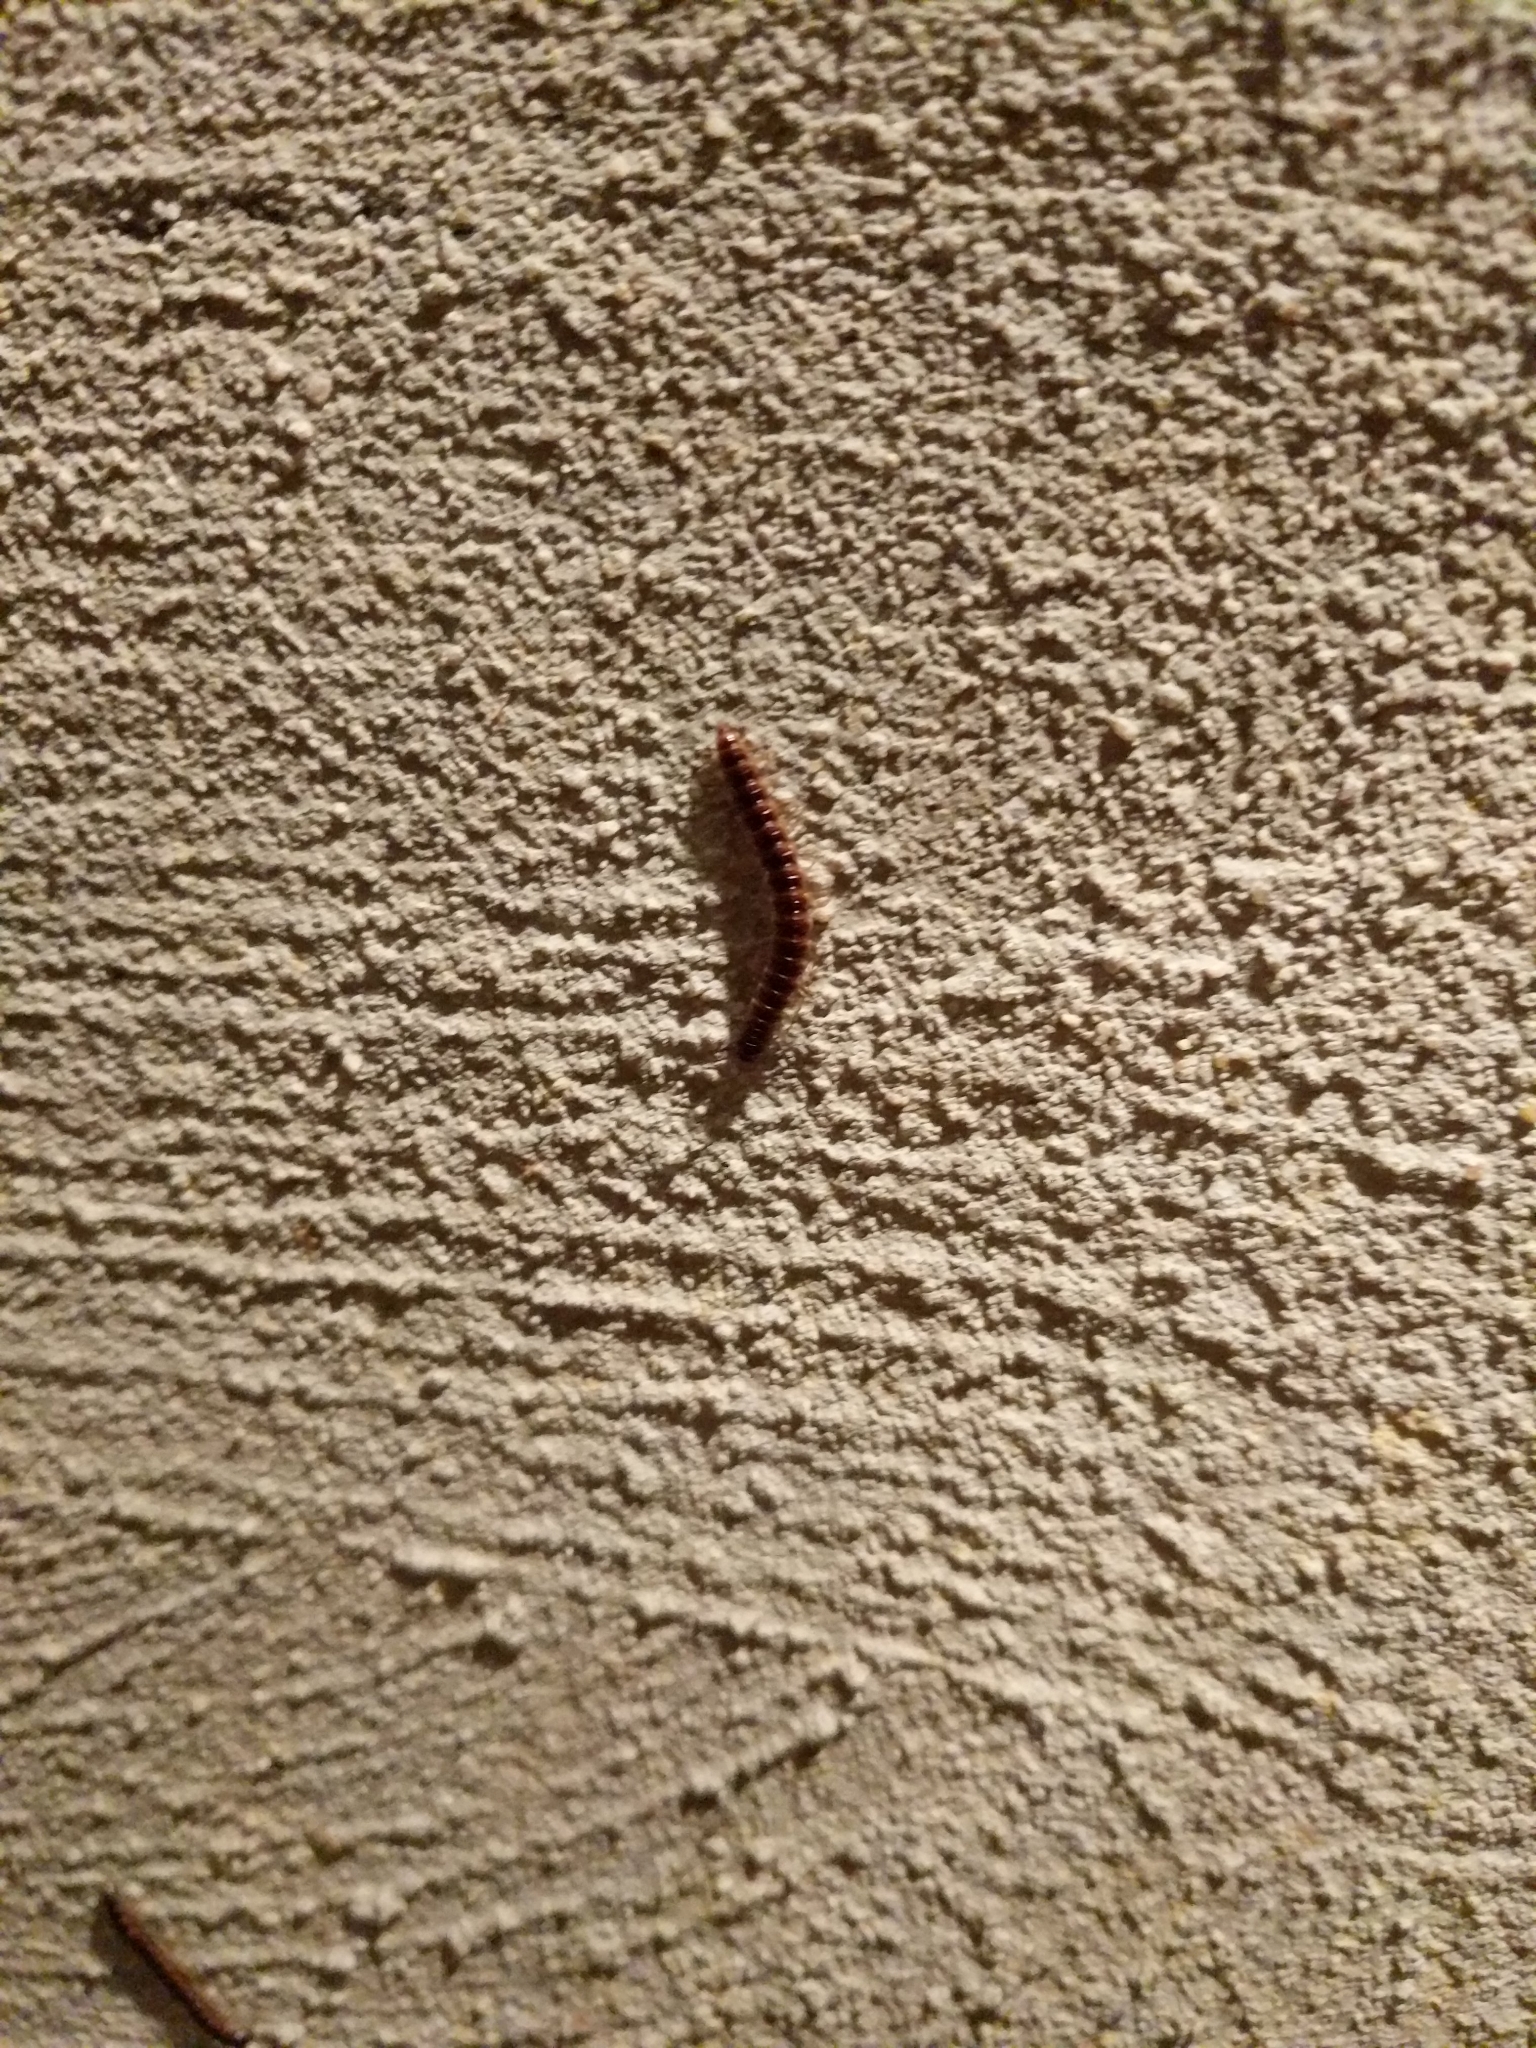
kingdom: Animalia
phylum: Arthropoda
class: Diplopoda
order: Polydesmida
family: Paradoxosomatidae
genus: Oxidus
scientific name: Oxidus gracilis
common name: Greenhouse millipede
